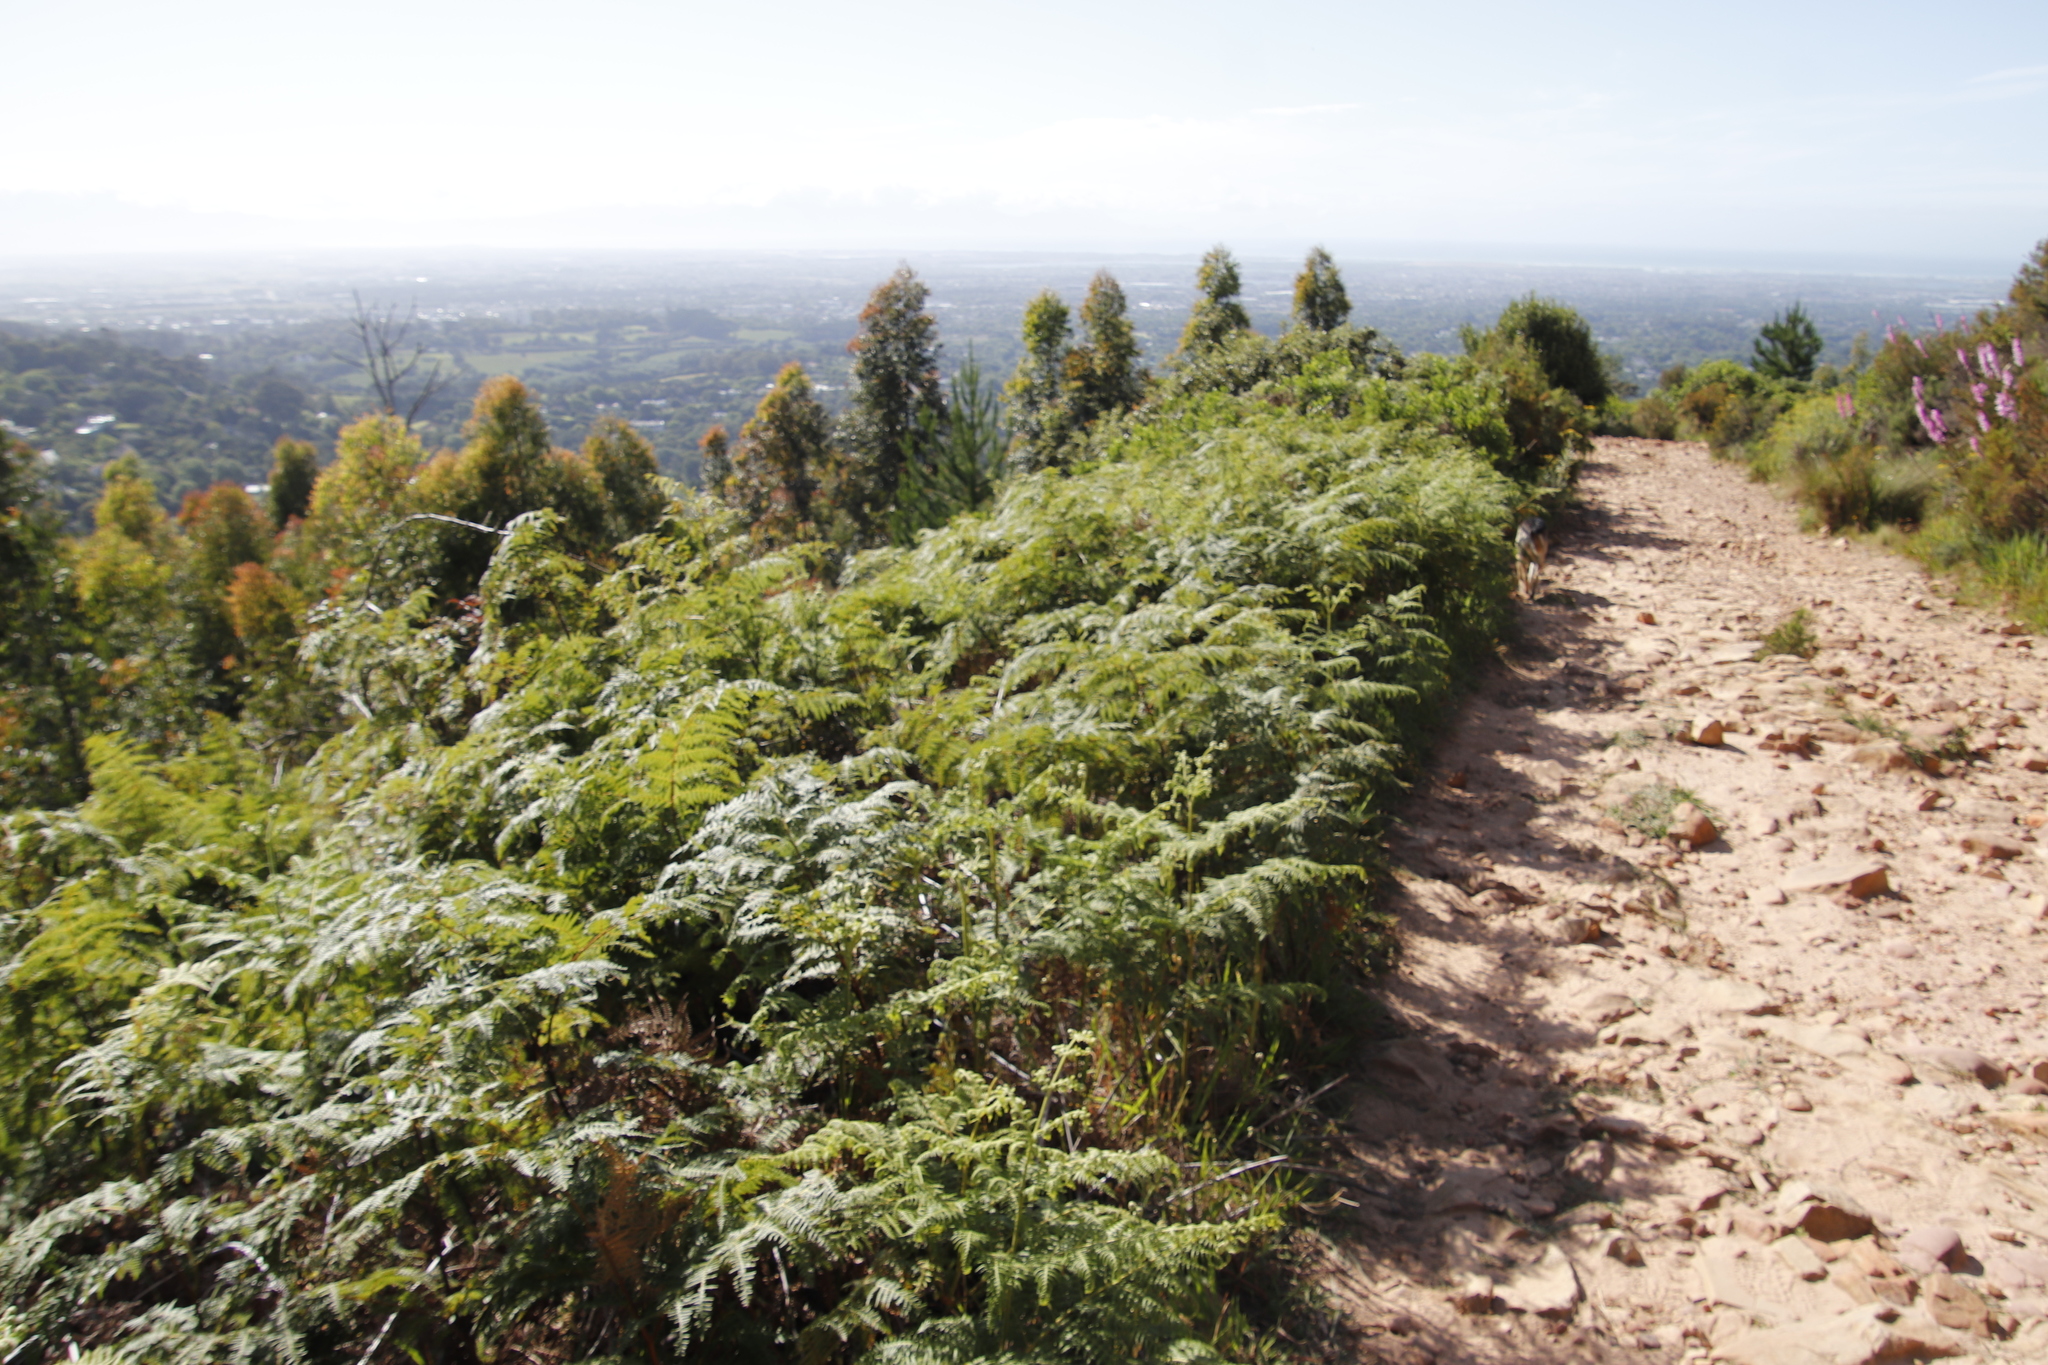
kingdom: Plantae
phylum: Tracheophyta
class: Polypodiopsida
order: Polypodiales
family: Dennstaedtiaceae
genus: Pteridium
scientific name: Pteridium aquilinum
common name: Bracken
